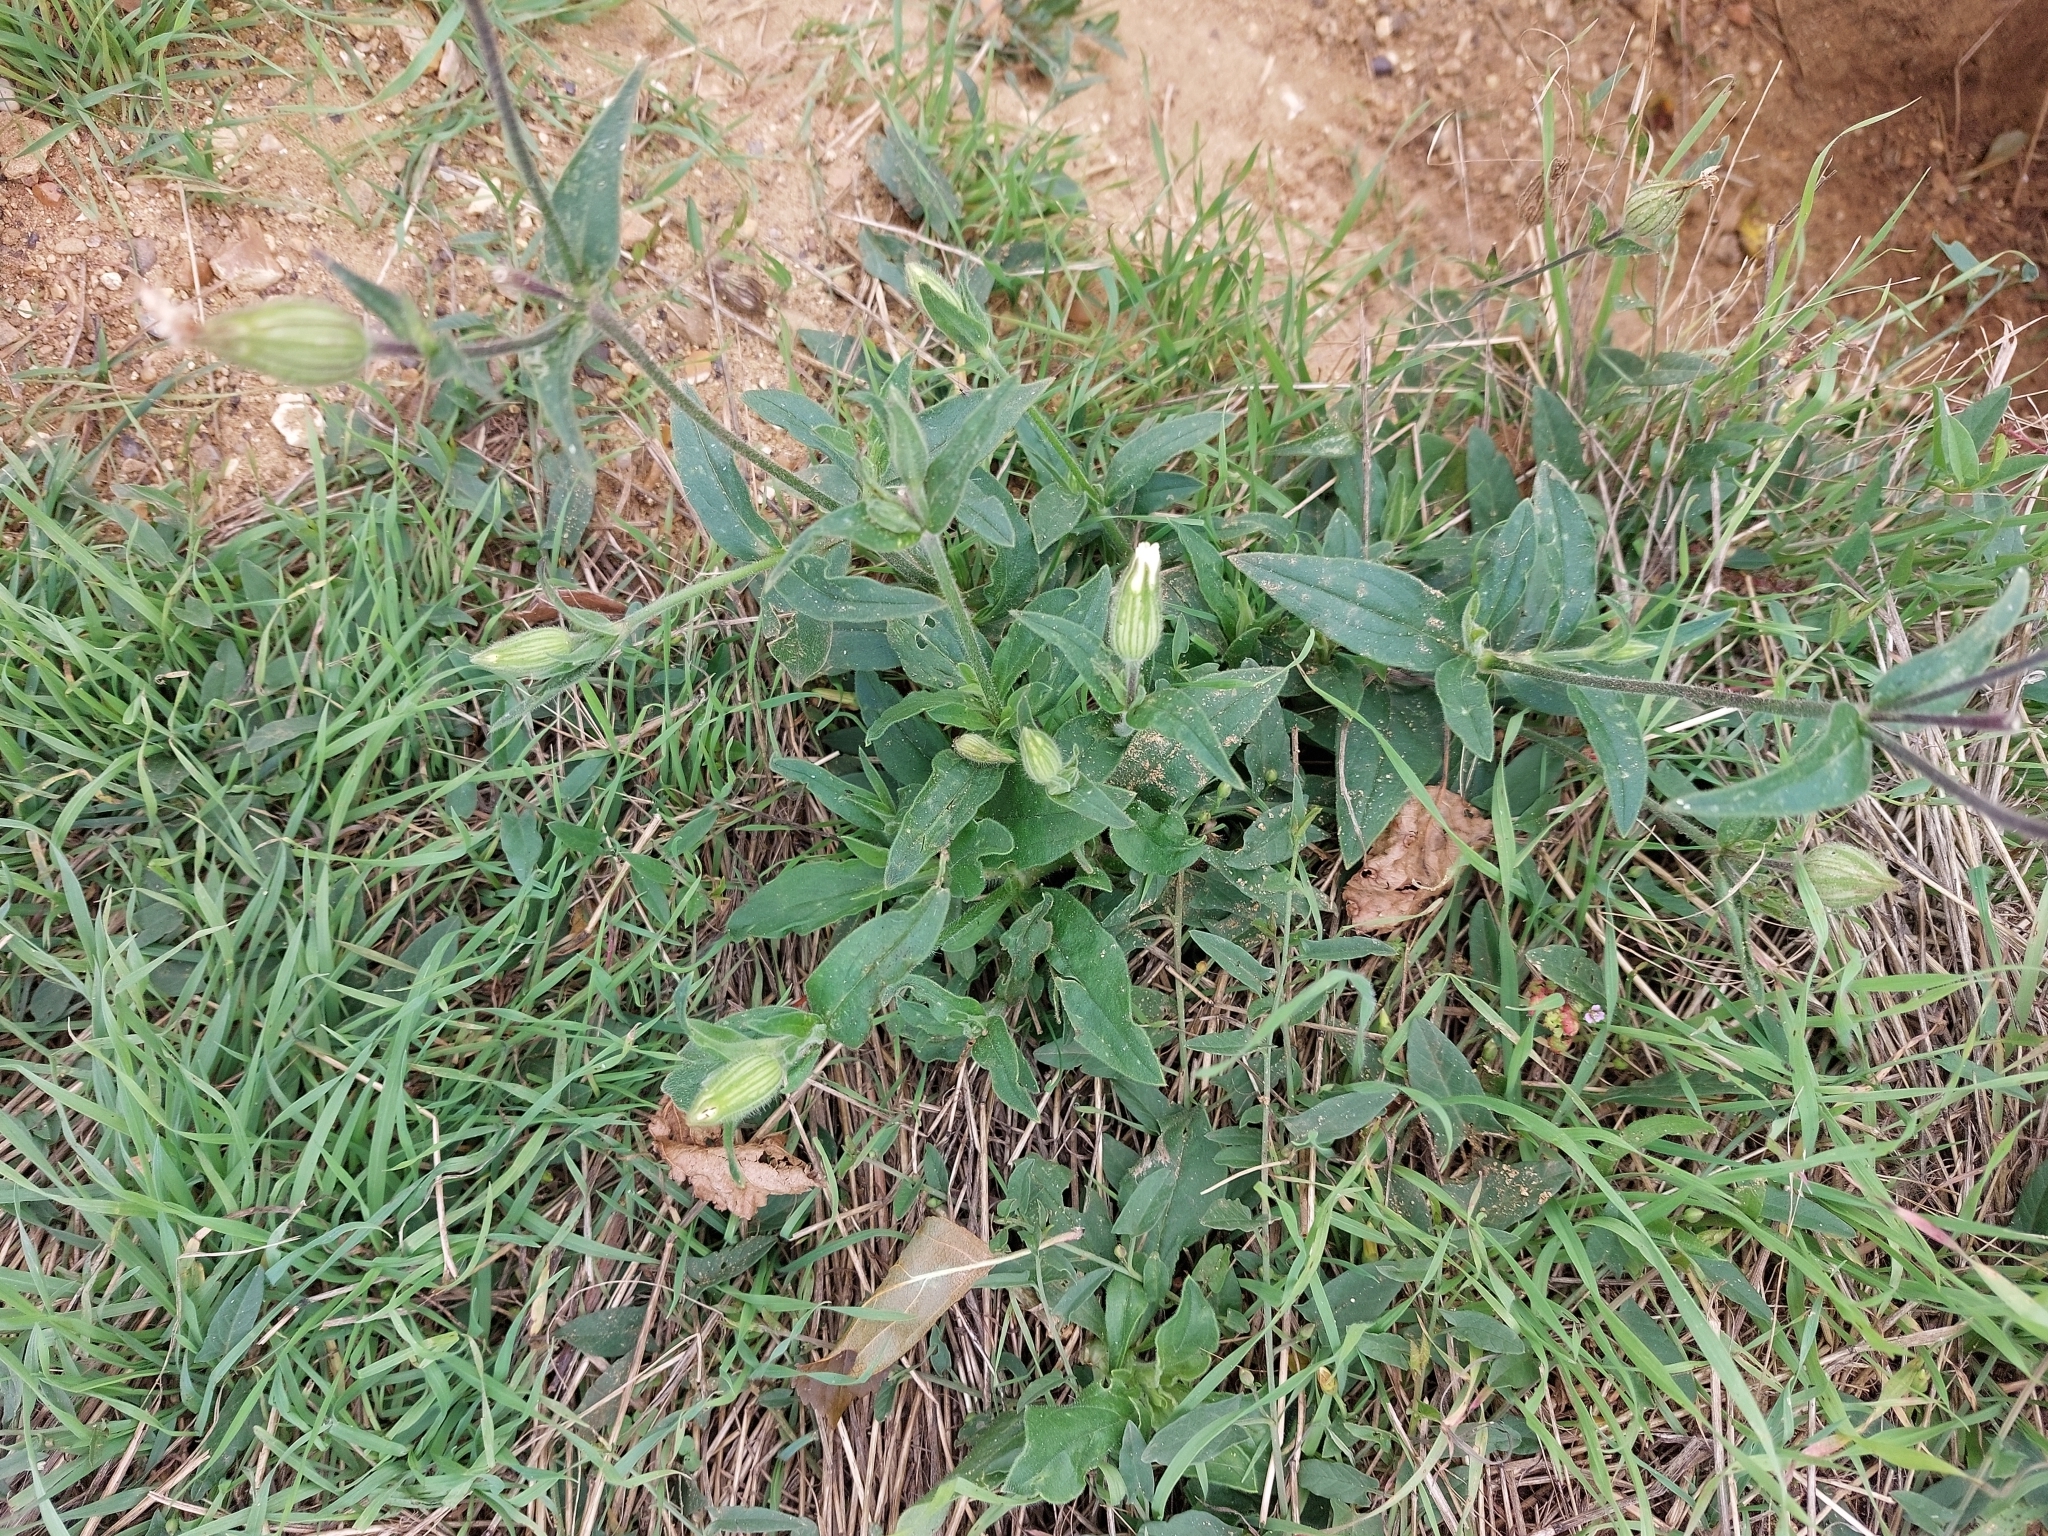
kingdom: Plantae
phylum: Tracheophyta
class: Magnoliopsida
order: Caryophyllales
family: Caryophyllaceae
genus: Silene
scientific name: Silene latifolia
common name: White campion
